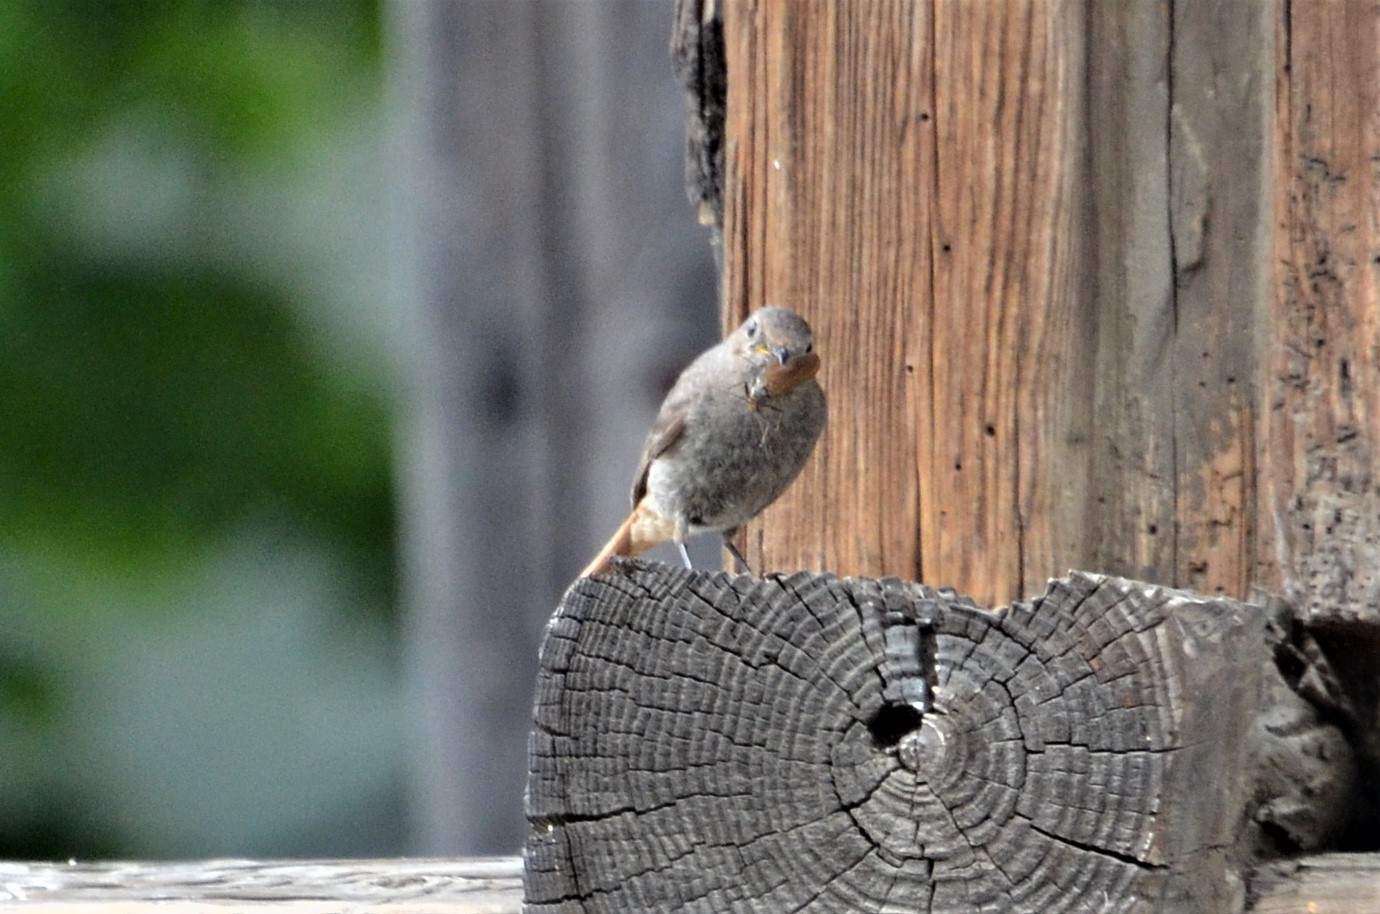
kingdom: Animalia
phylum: Chordata
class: Aves
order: Passeriformes
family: Muscicapidae
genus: Phoenicurus
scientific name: Phoenicurus ochruros
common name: Black redstart
